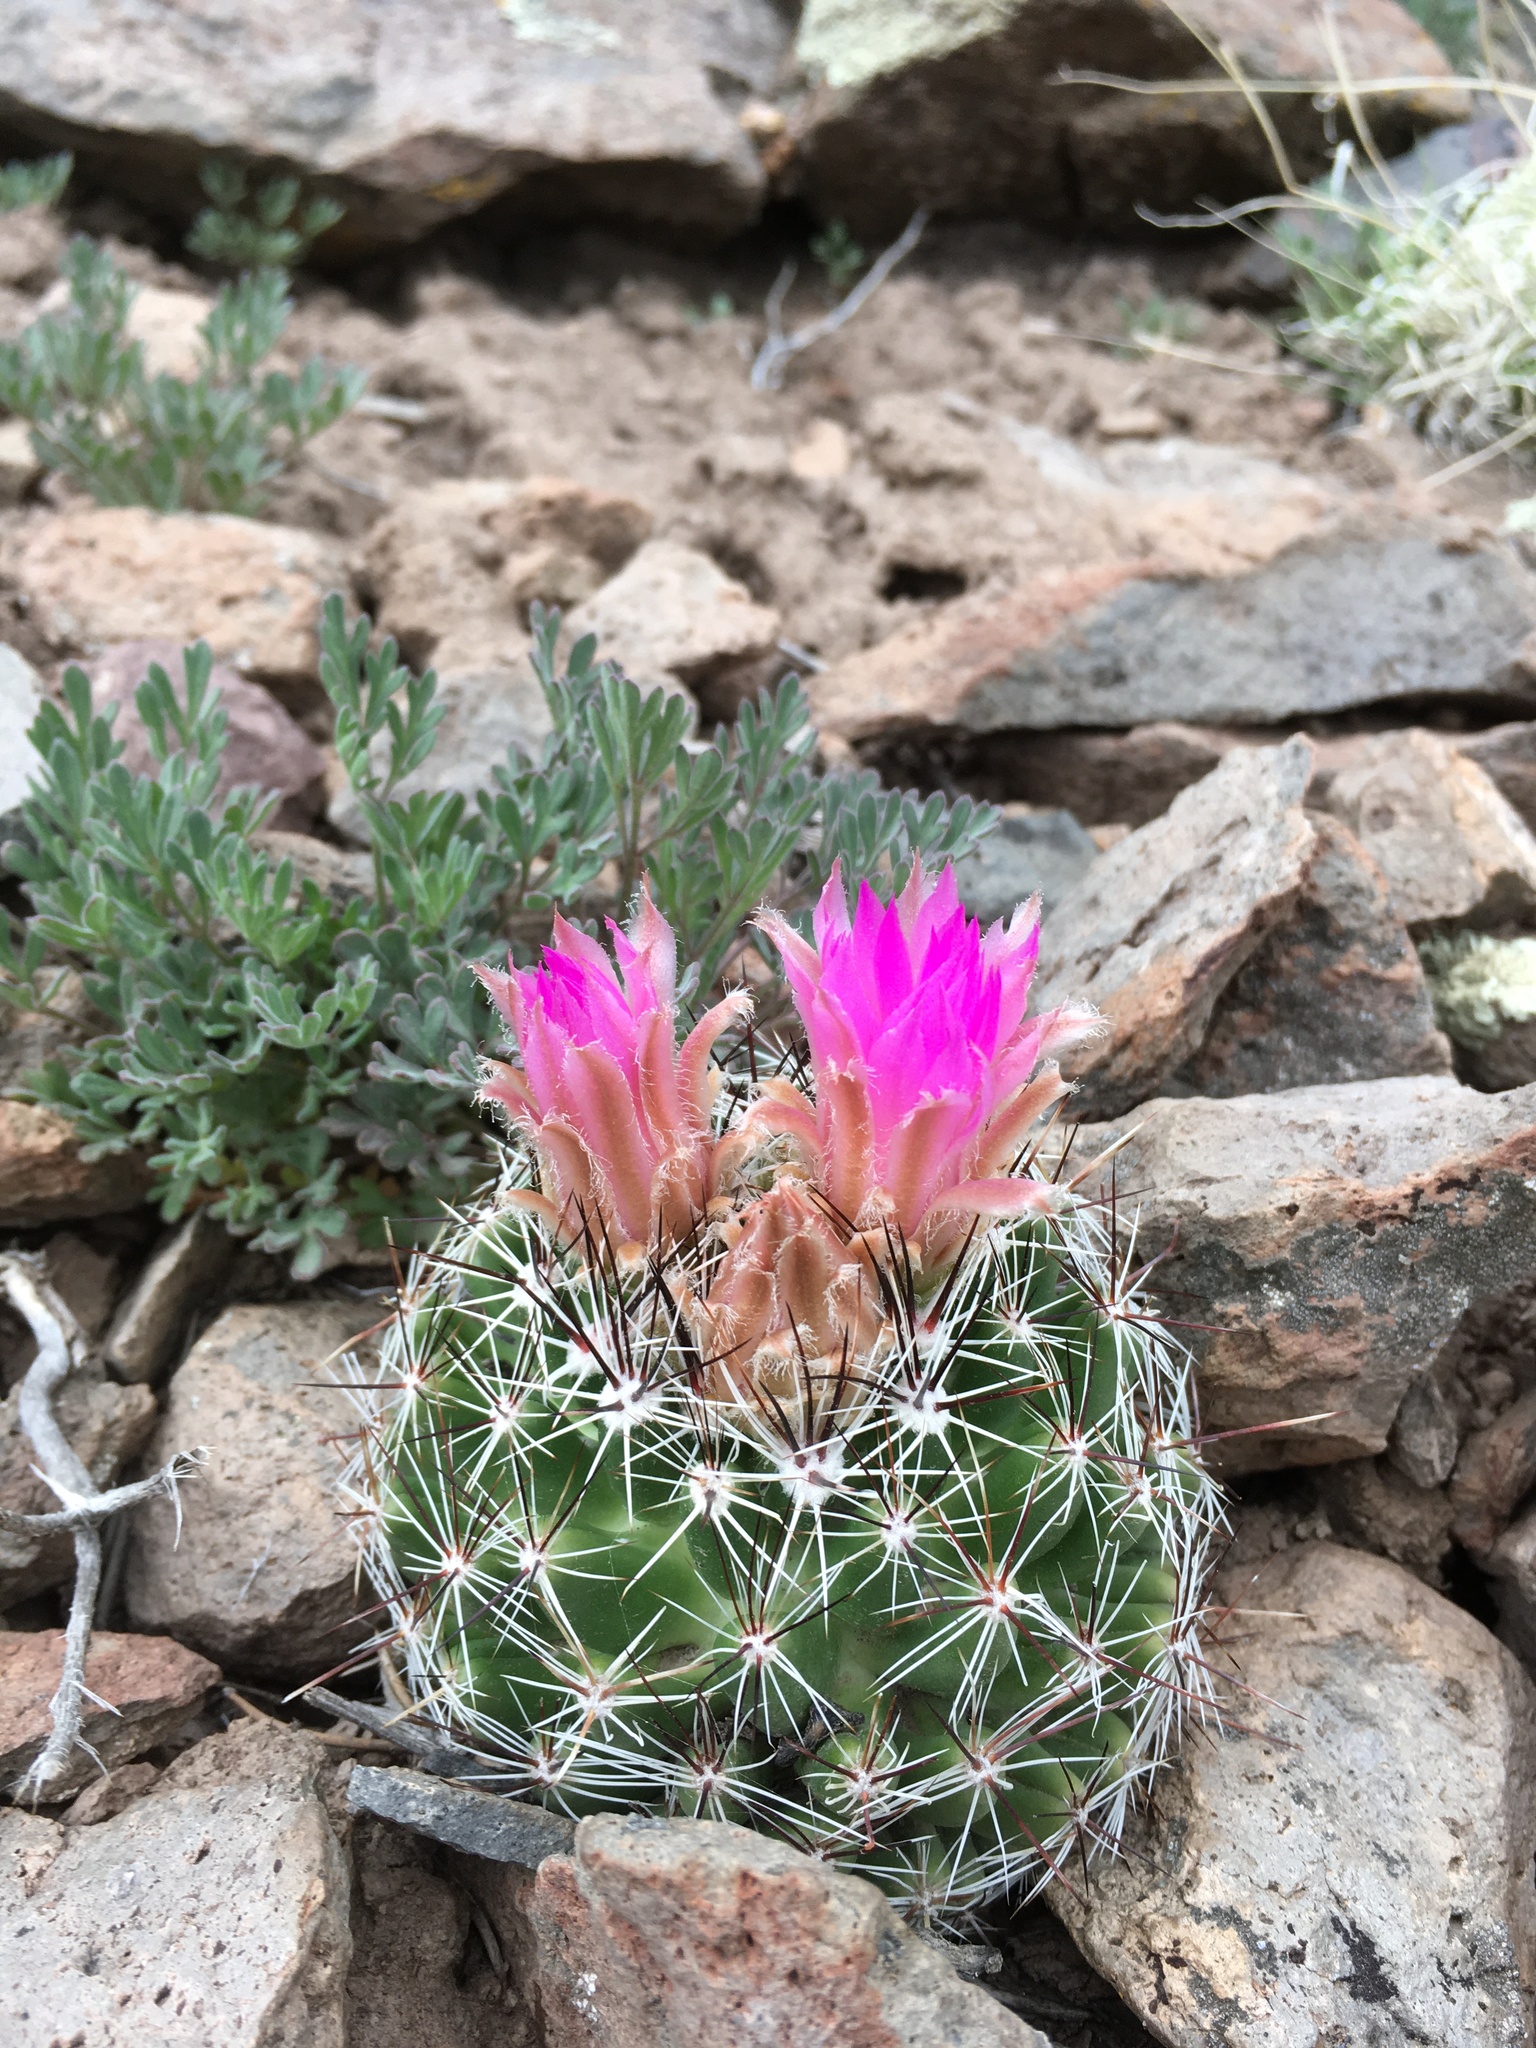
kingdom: Plantae
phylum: Tracheophyta
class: Magnoliopsida
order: Caryophyllales
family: Cactaceae
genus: Pelecyphora
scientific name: Pelecyphora vivipara
